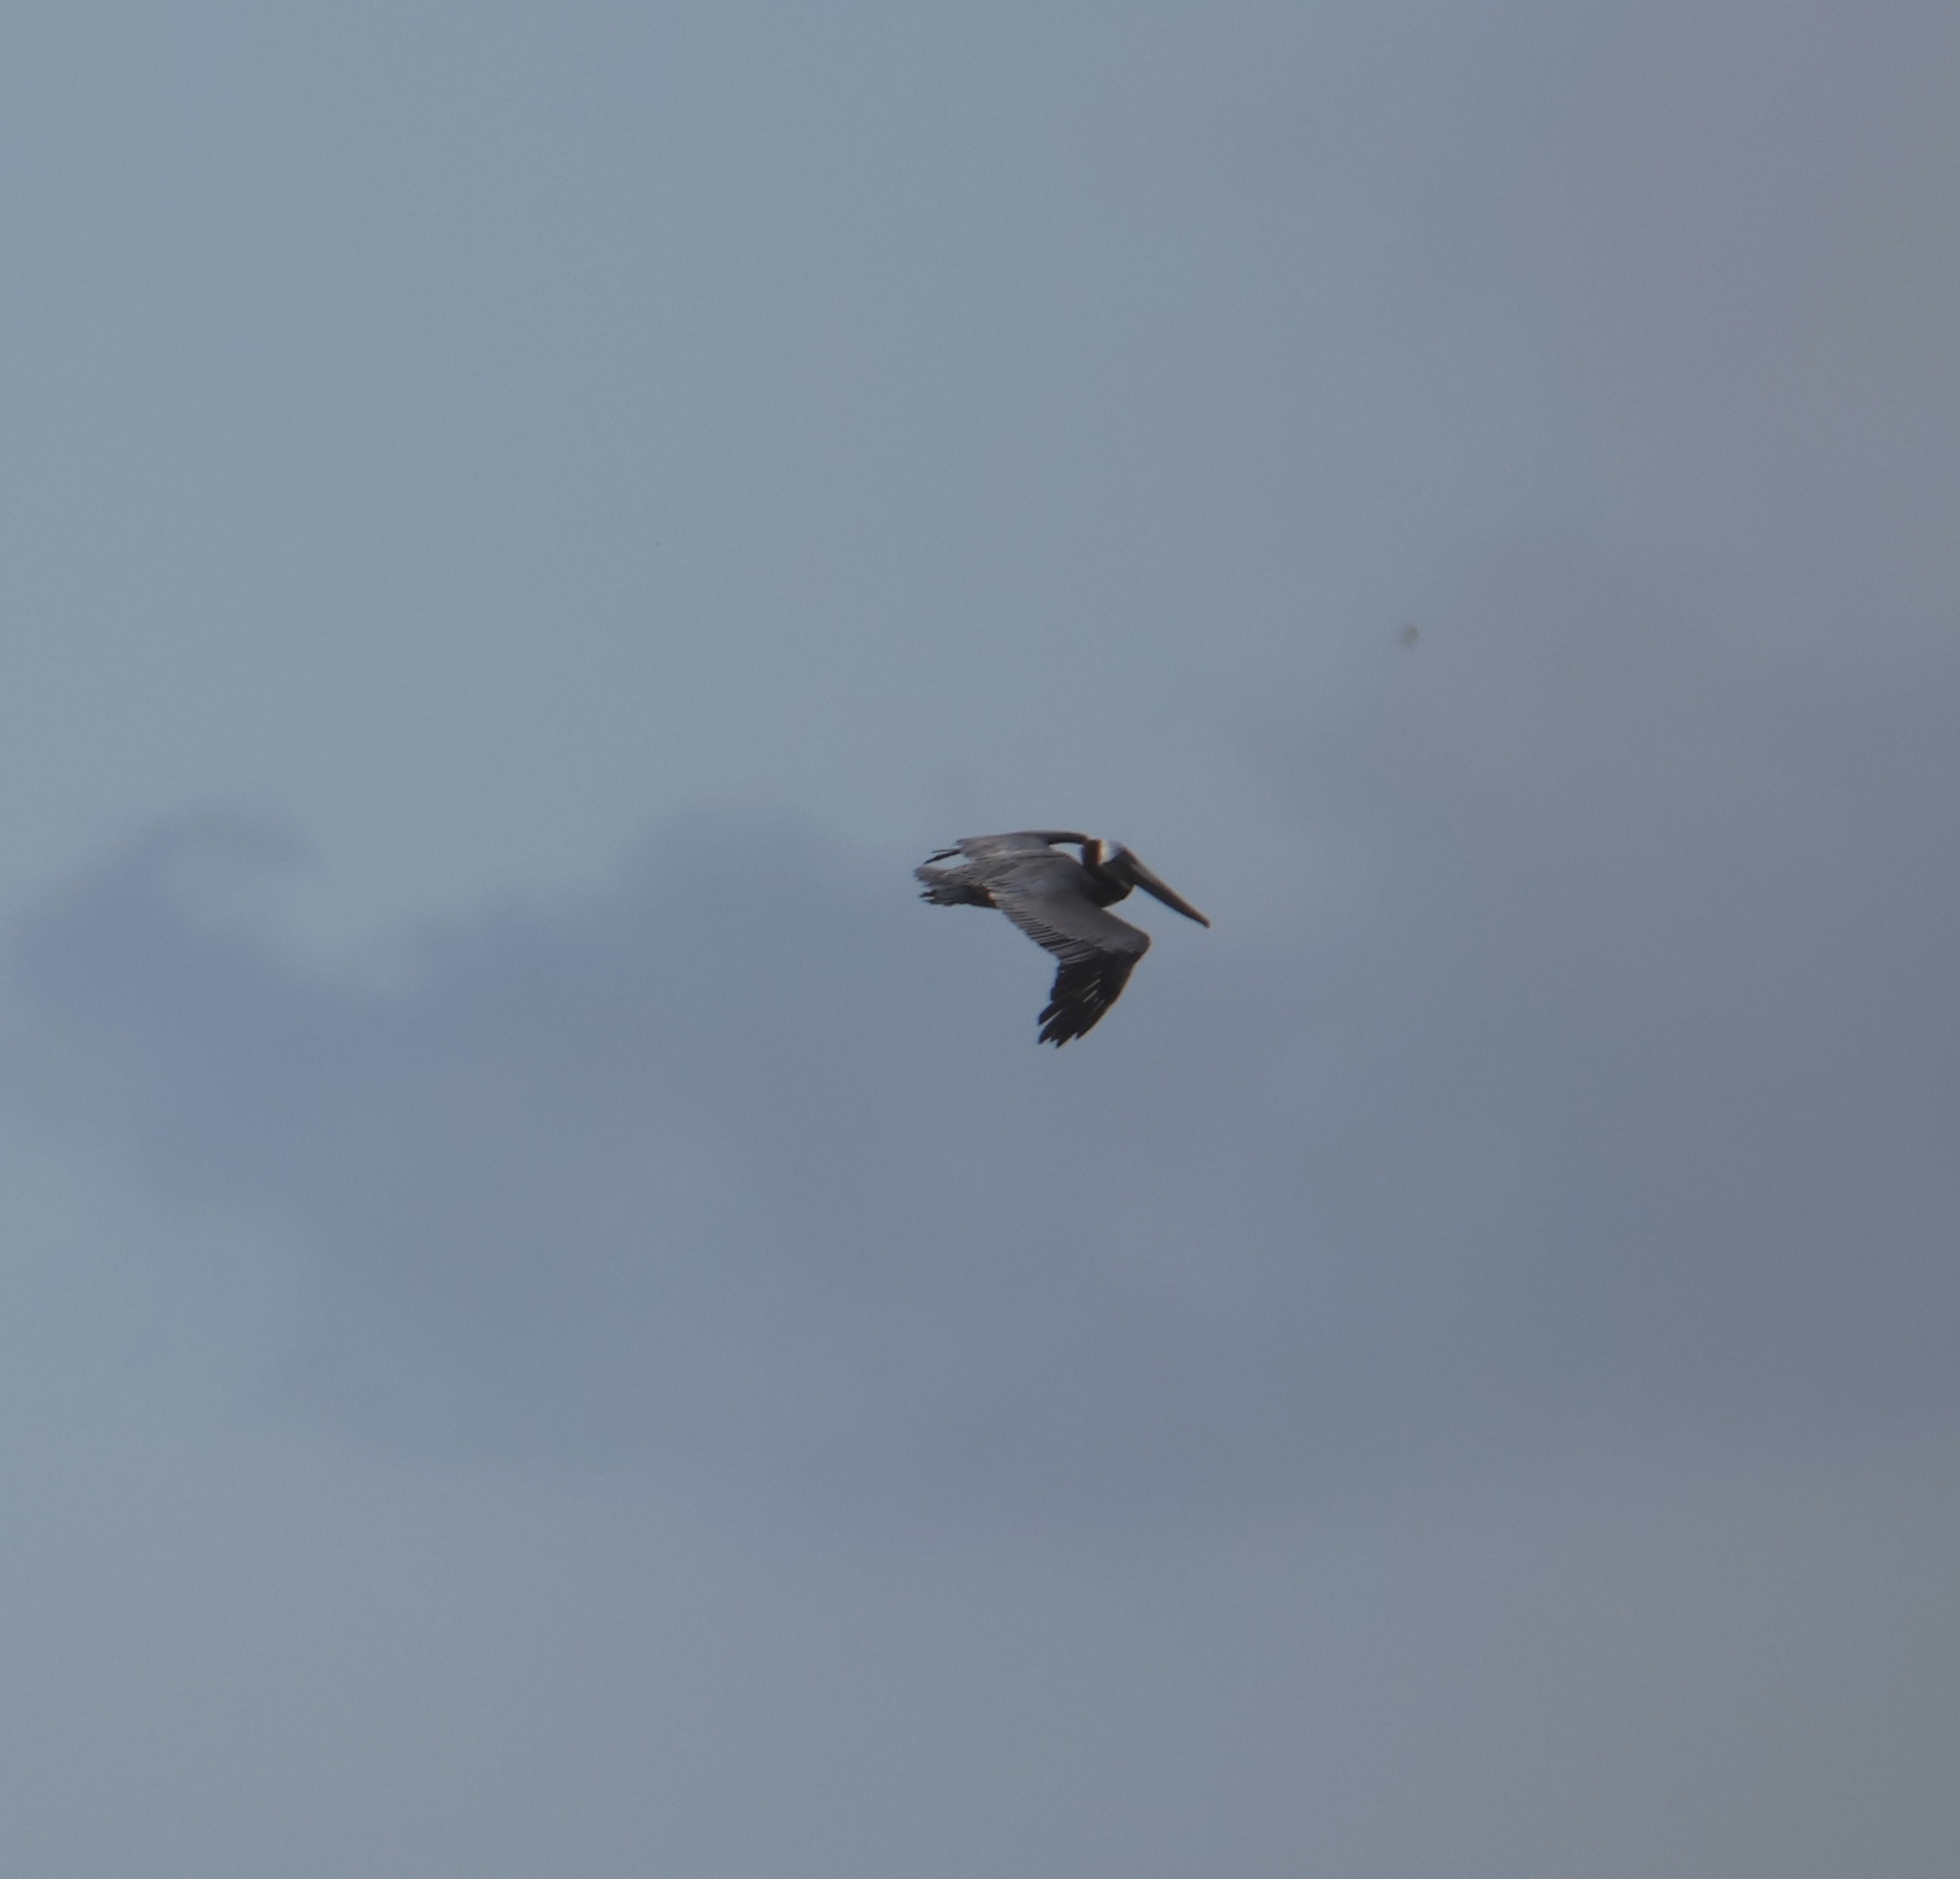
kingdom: Animalia
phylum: Chordata
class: Aves
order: Pelecaniformes
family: Pelecanidae
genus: Pelecanus
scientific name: Pelecanus occidentalis
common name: Brown pelican
